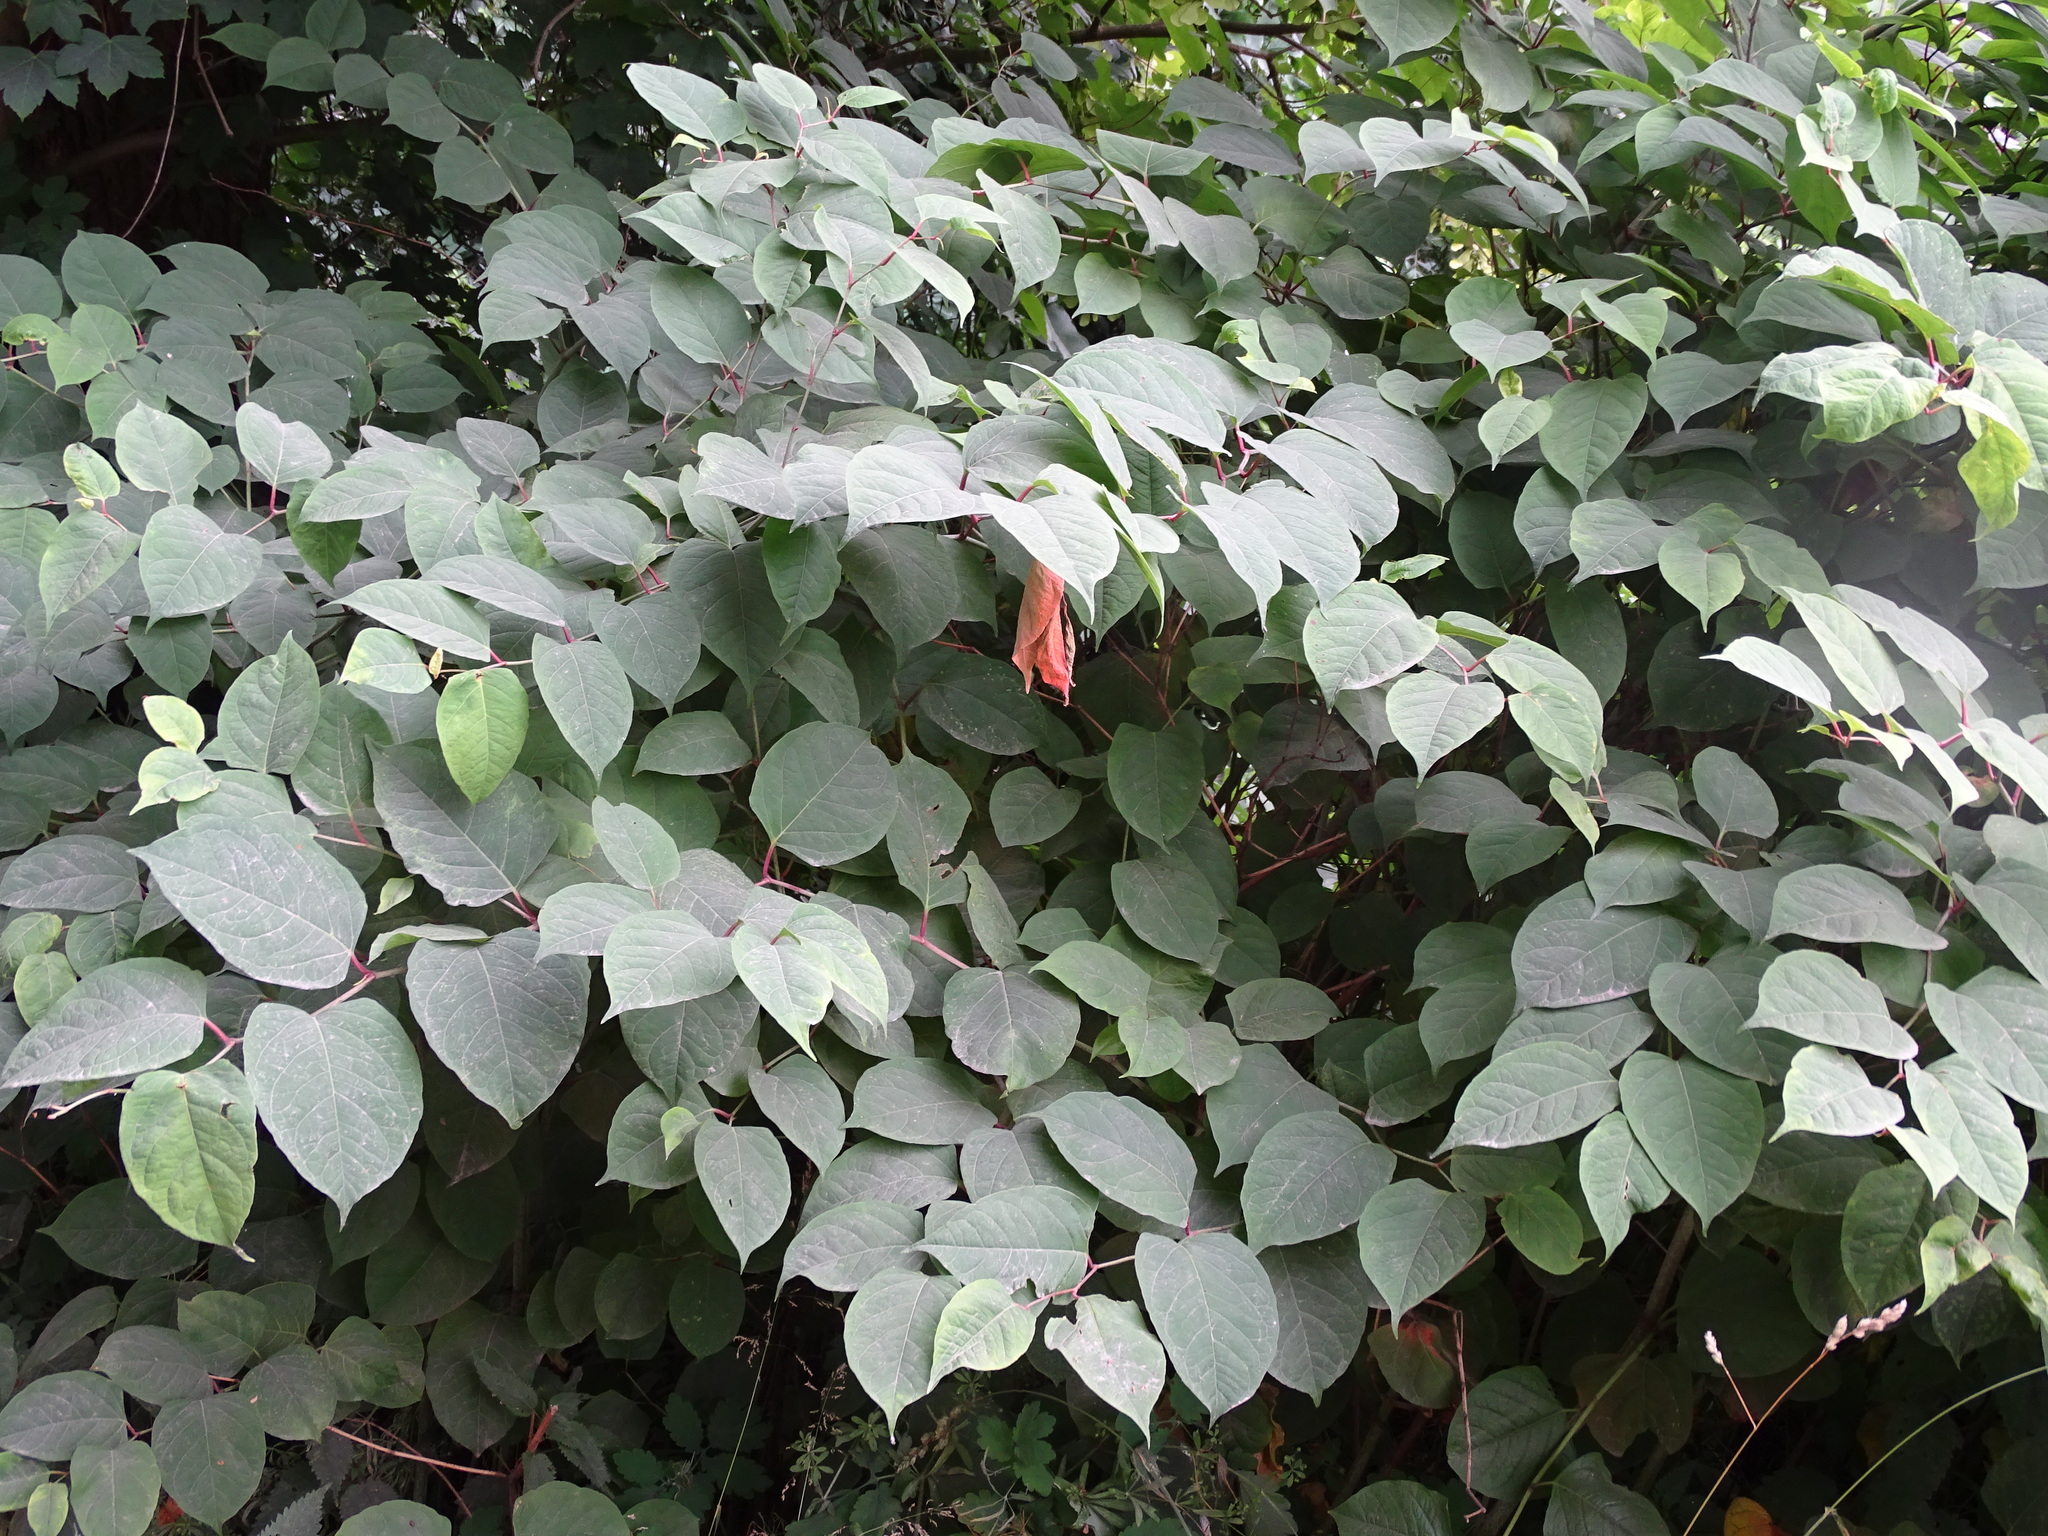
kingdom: Plantae
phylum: Tracheophyta
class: Magnoliopsida
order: Caryophyllales
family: Polygonaceae
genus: Reynoutria
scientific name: Reynoutria japonica
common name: Japanese knotweed
